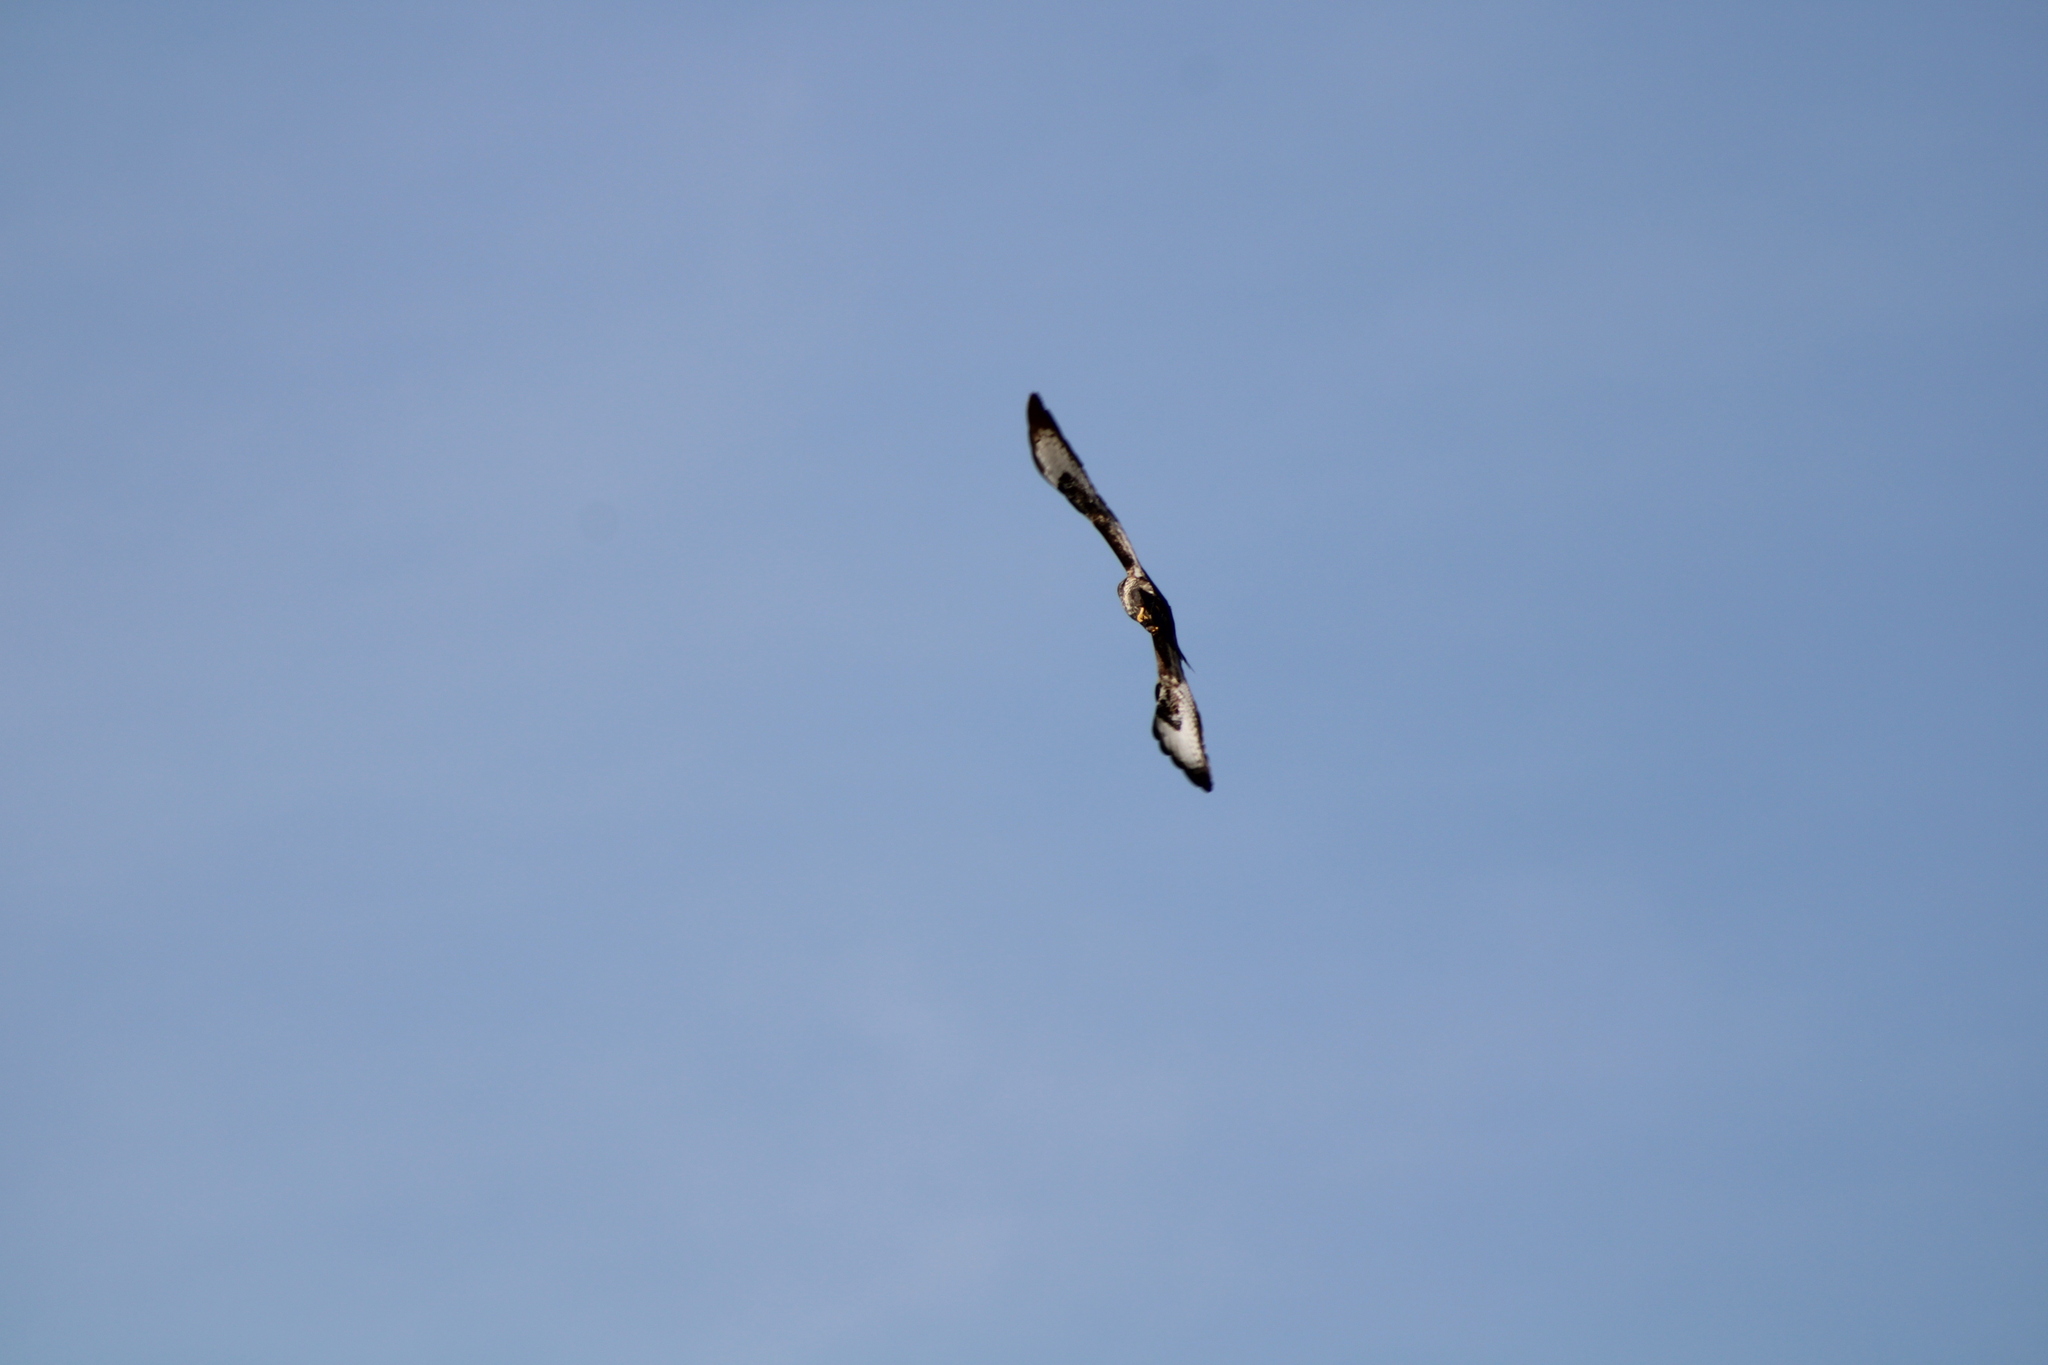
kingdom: Animalia
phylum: Chordata
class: Aves
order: Accipitriformes
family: Accipitridae
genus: Buteo
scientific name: Buteo buteo
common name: Common buzzard
